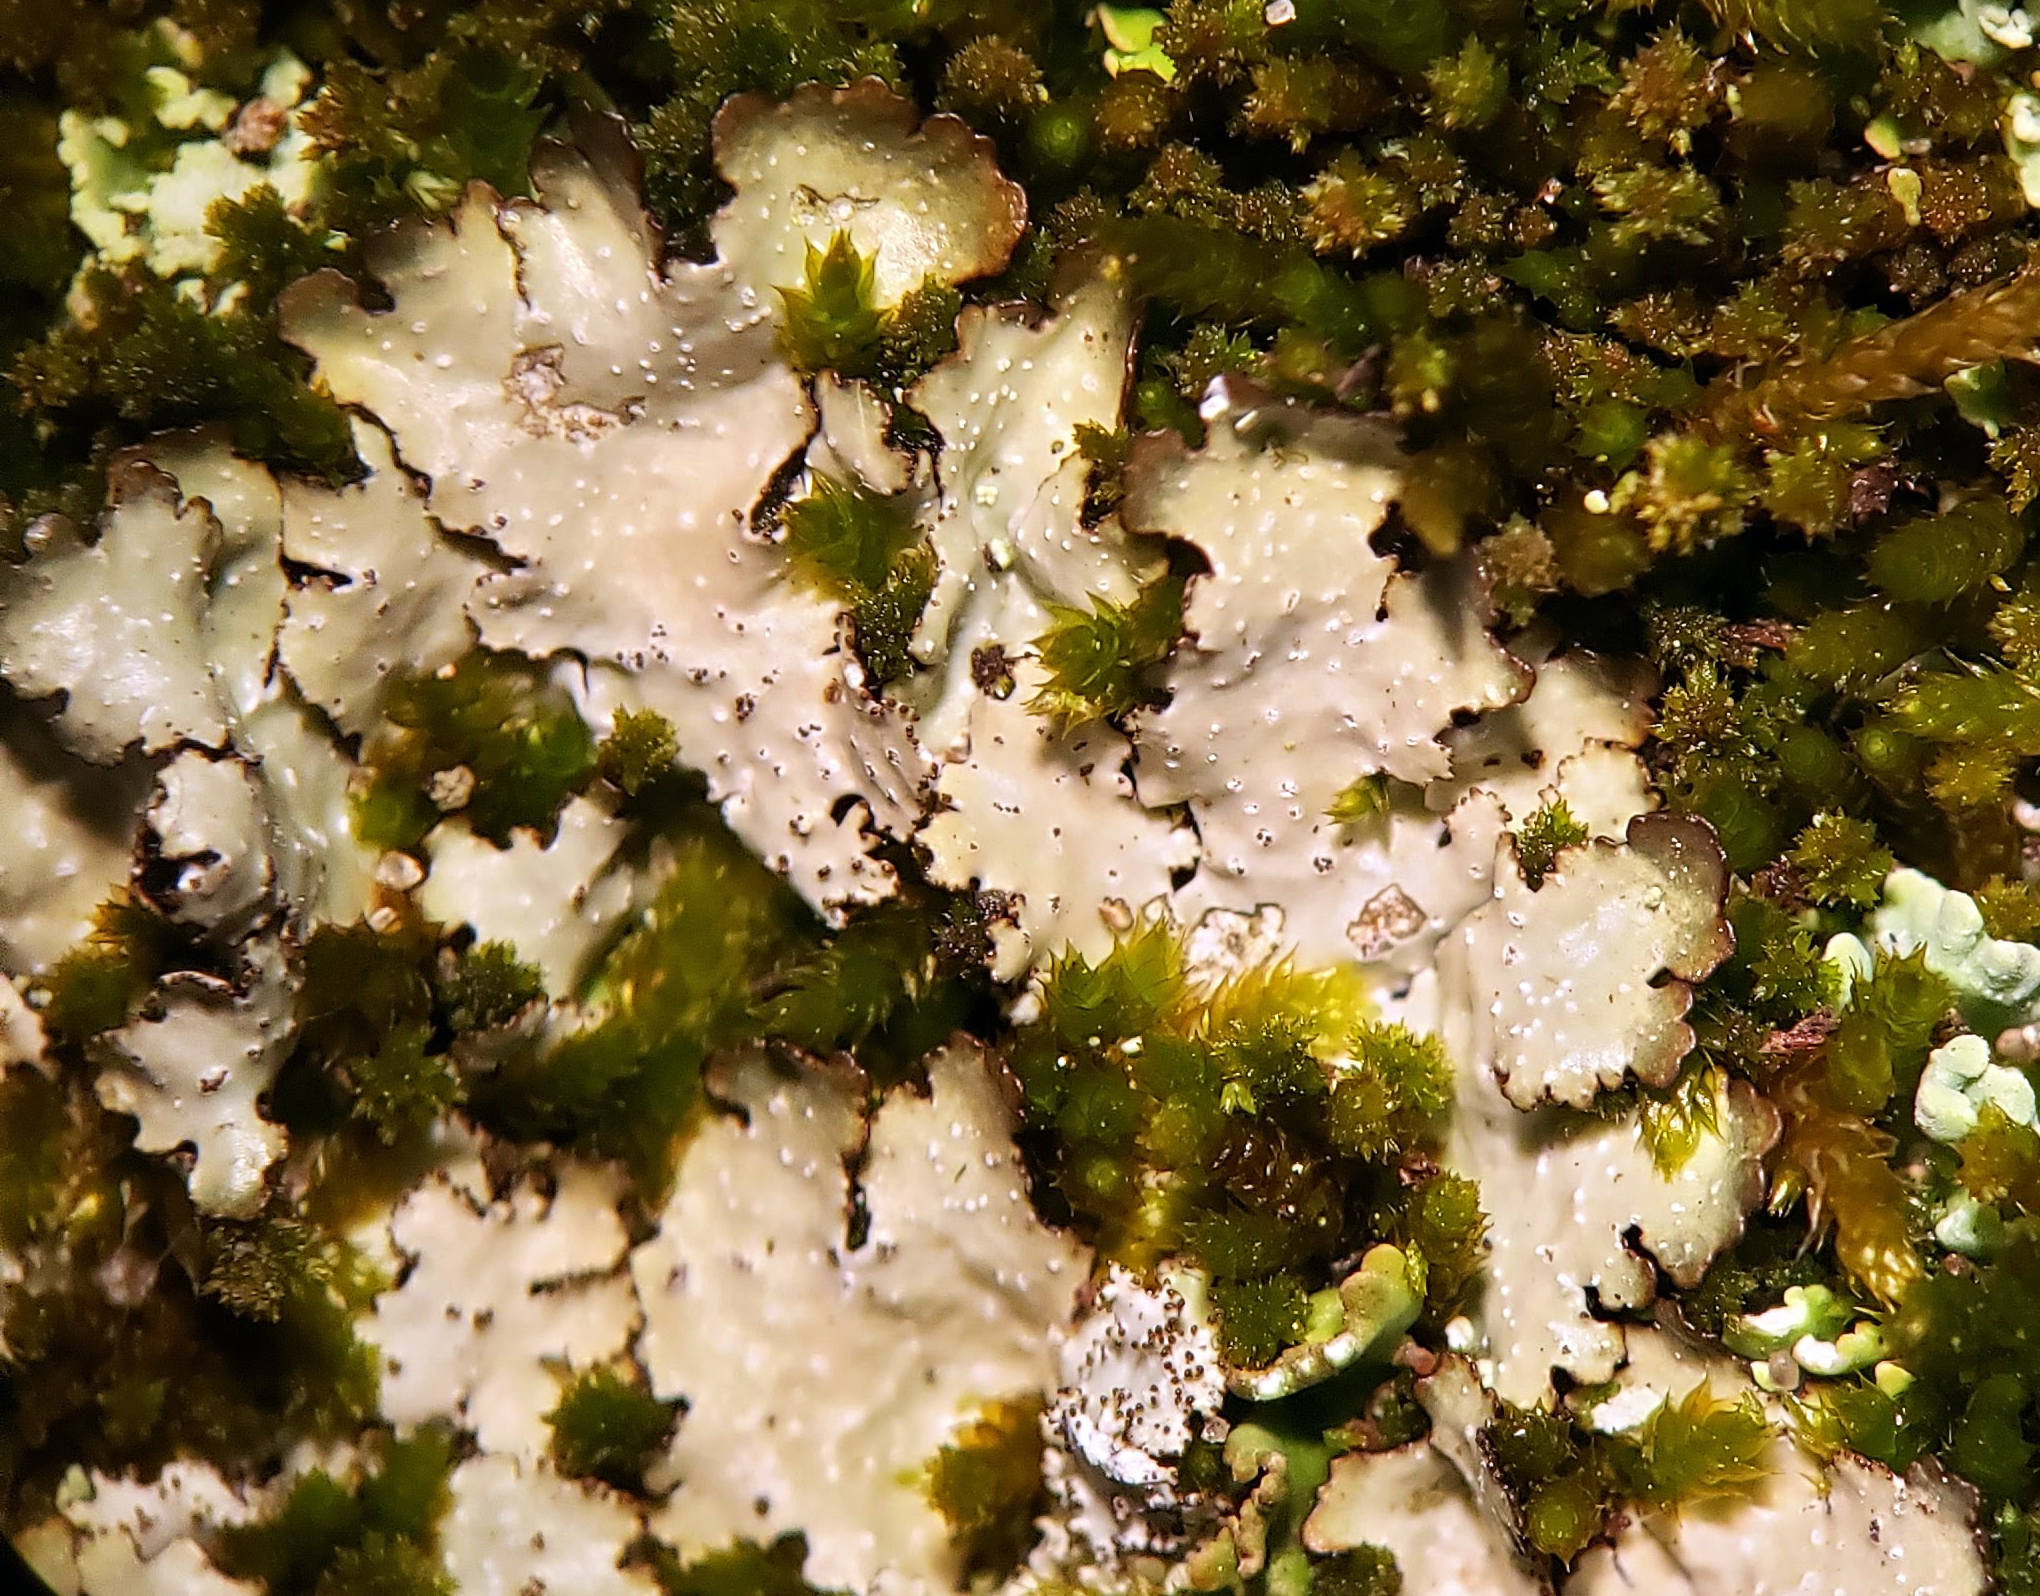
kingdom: Fungi
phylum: Ascomycota
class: Lecanoromycetes
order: Lecanorales
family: Parmeliaceae
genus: Punctelia
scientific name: Punctelia rudecta
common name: Rough speckled shield lichen
